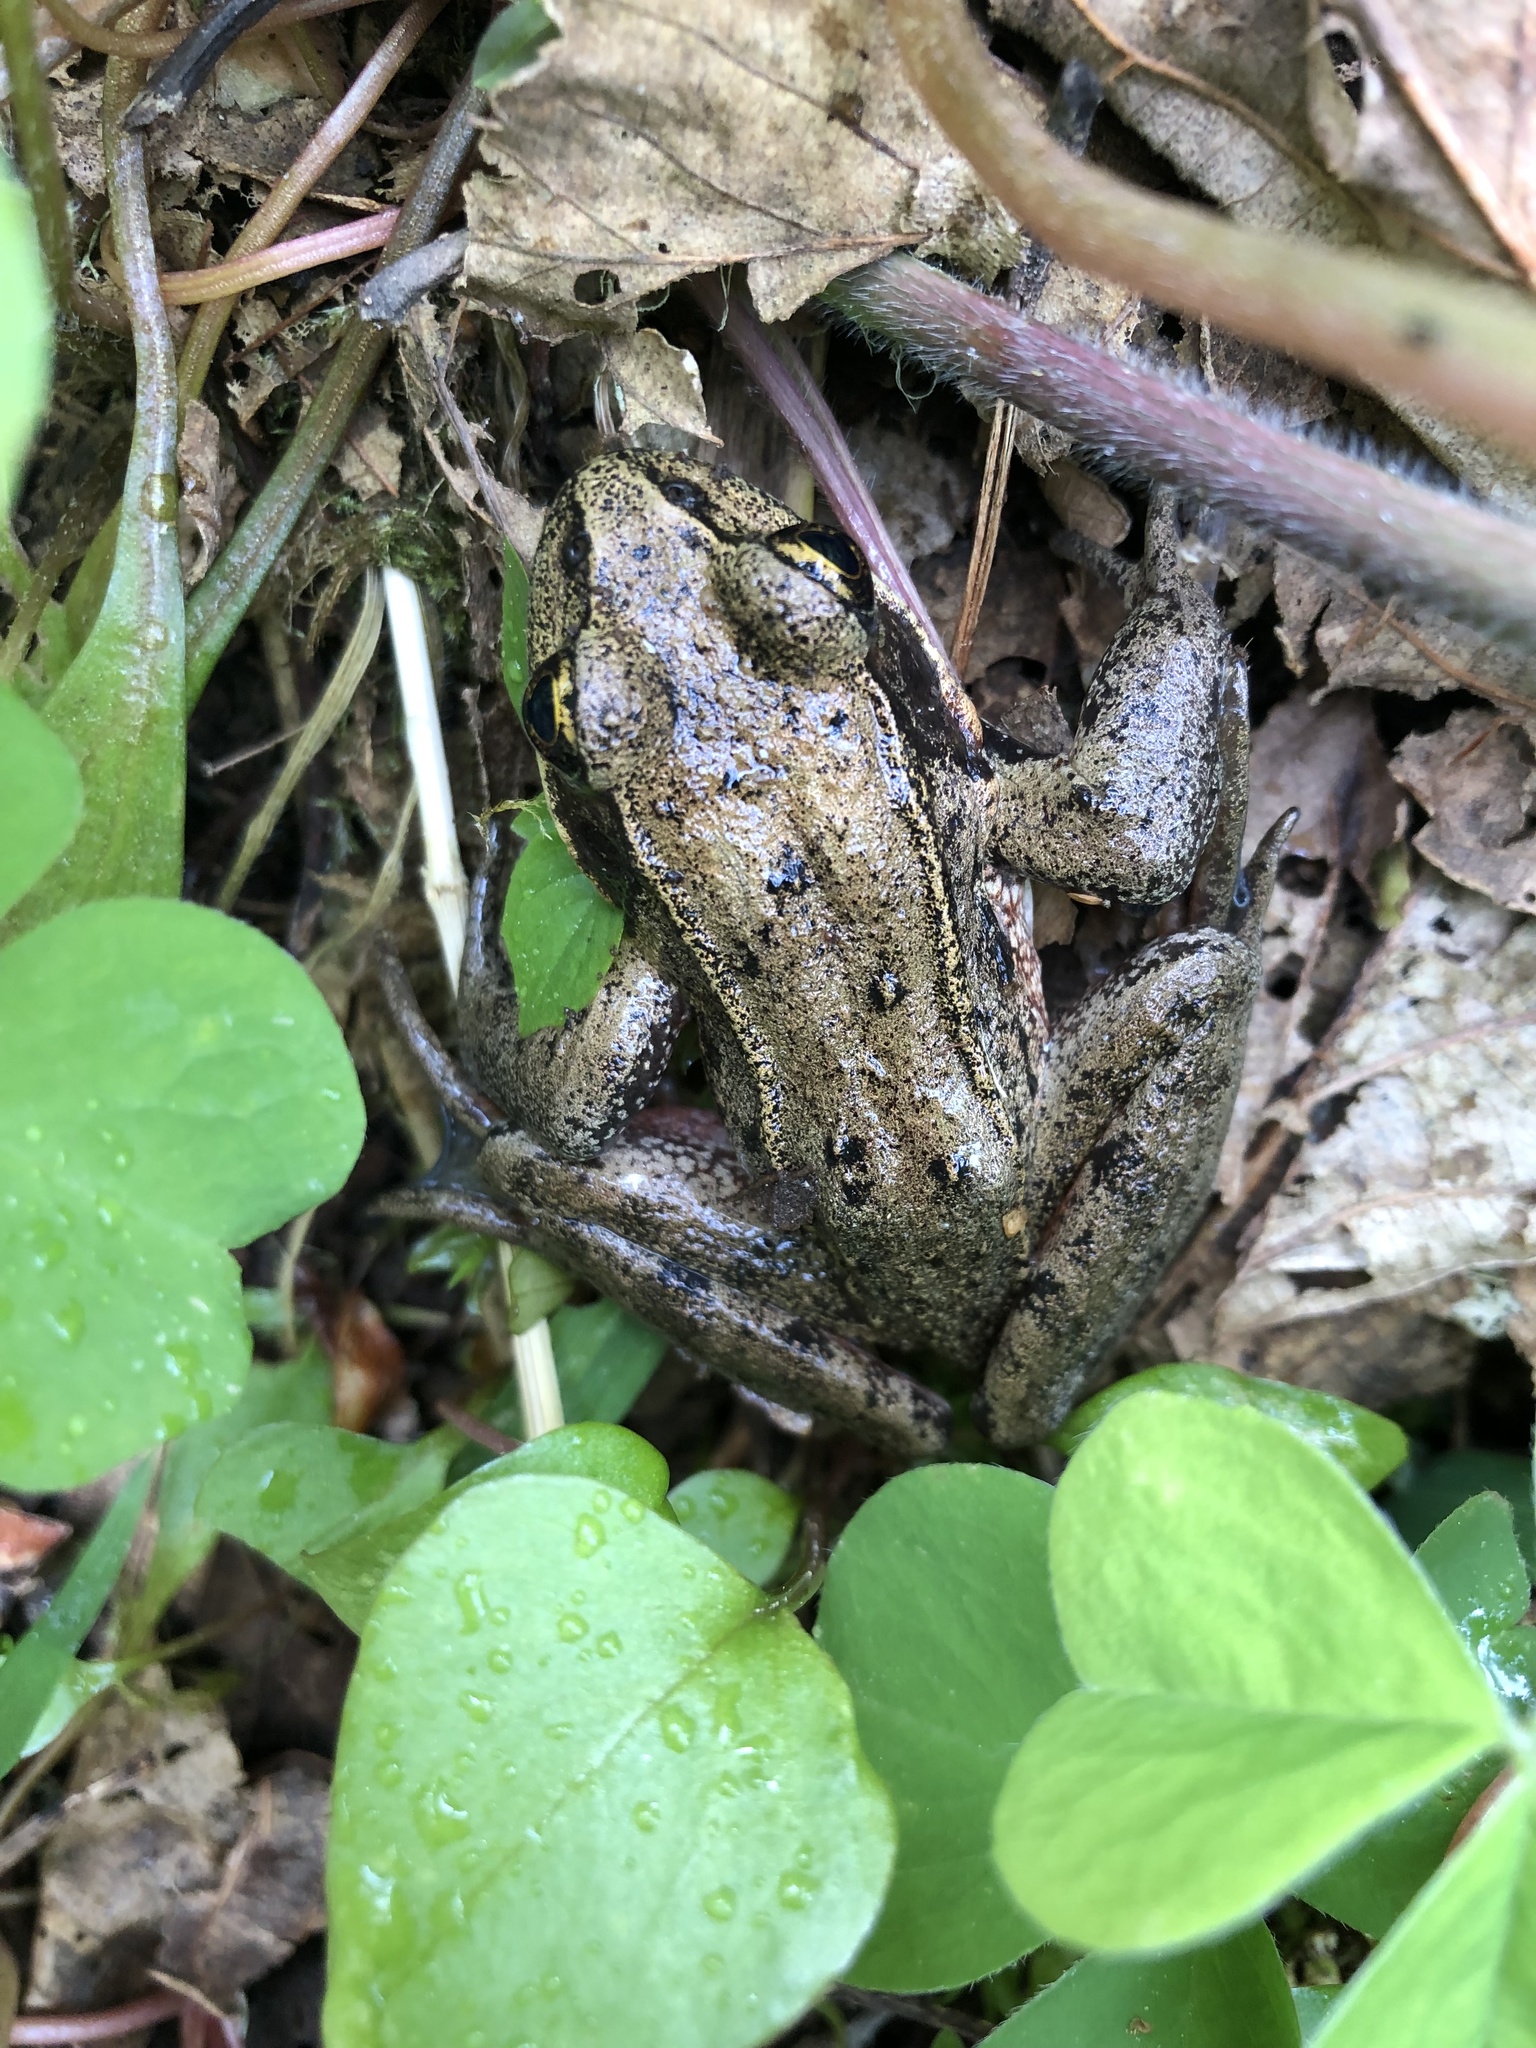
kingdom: Animalia
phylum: Chordata
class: Amphibia
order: Anura
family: Ranidae
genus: Rana
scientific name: Rana aurora
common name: Red-legged frog
